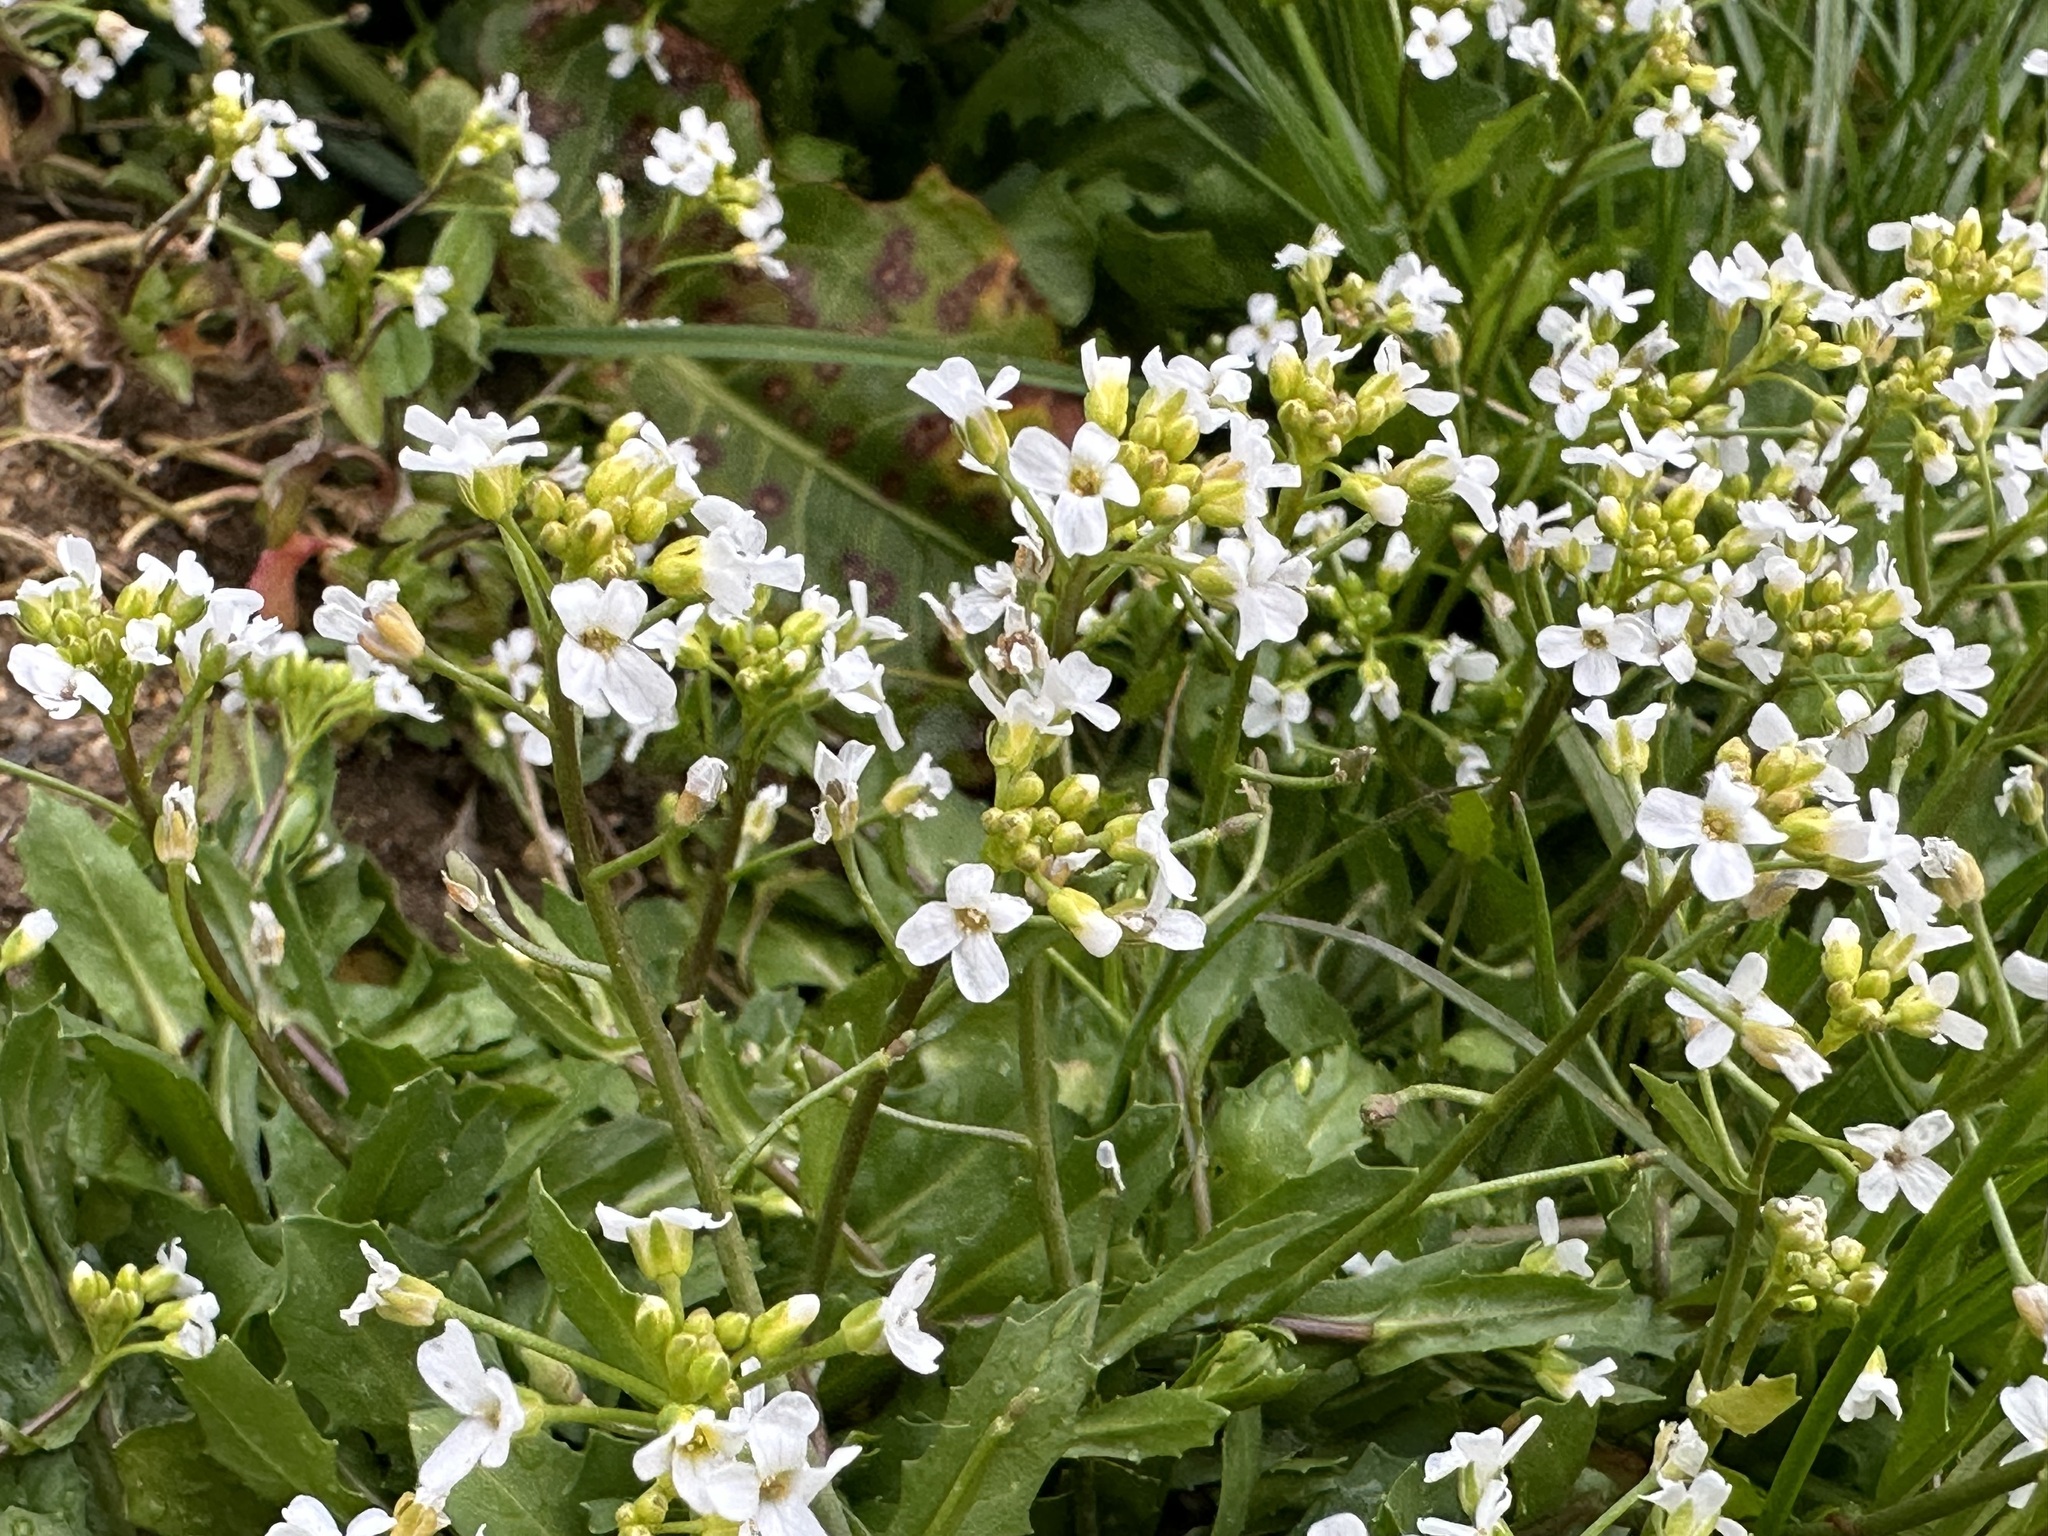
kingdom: Plantae
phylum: Tracheophyta
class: Magnoliopsida
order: Brassicales
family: Brassicaceae
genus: Calepina
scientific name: Calepina irregularis
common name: White ballmustard
